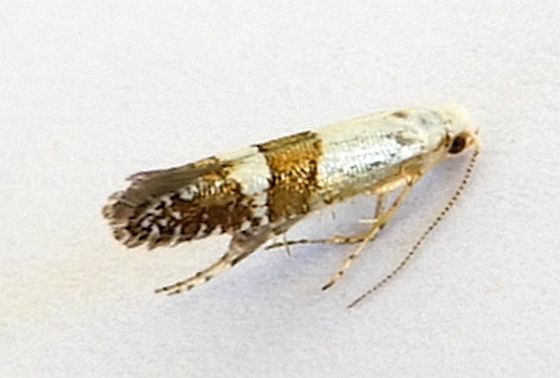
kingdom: Animalia
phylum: Arthropoda
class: Insecta
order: Lepidoptera
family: Argyresthiidae
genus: Argyresthia
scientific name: Argyresthia inscriptella
